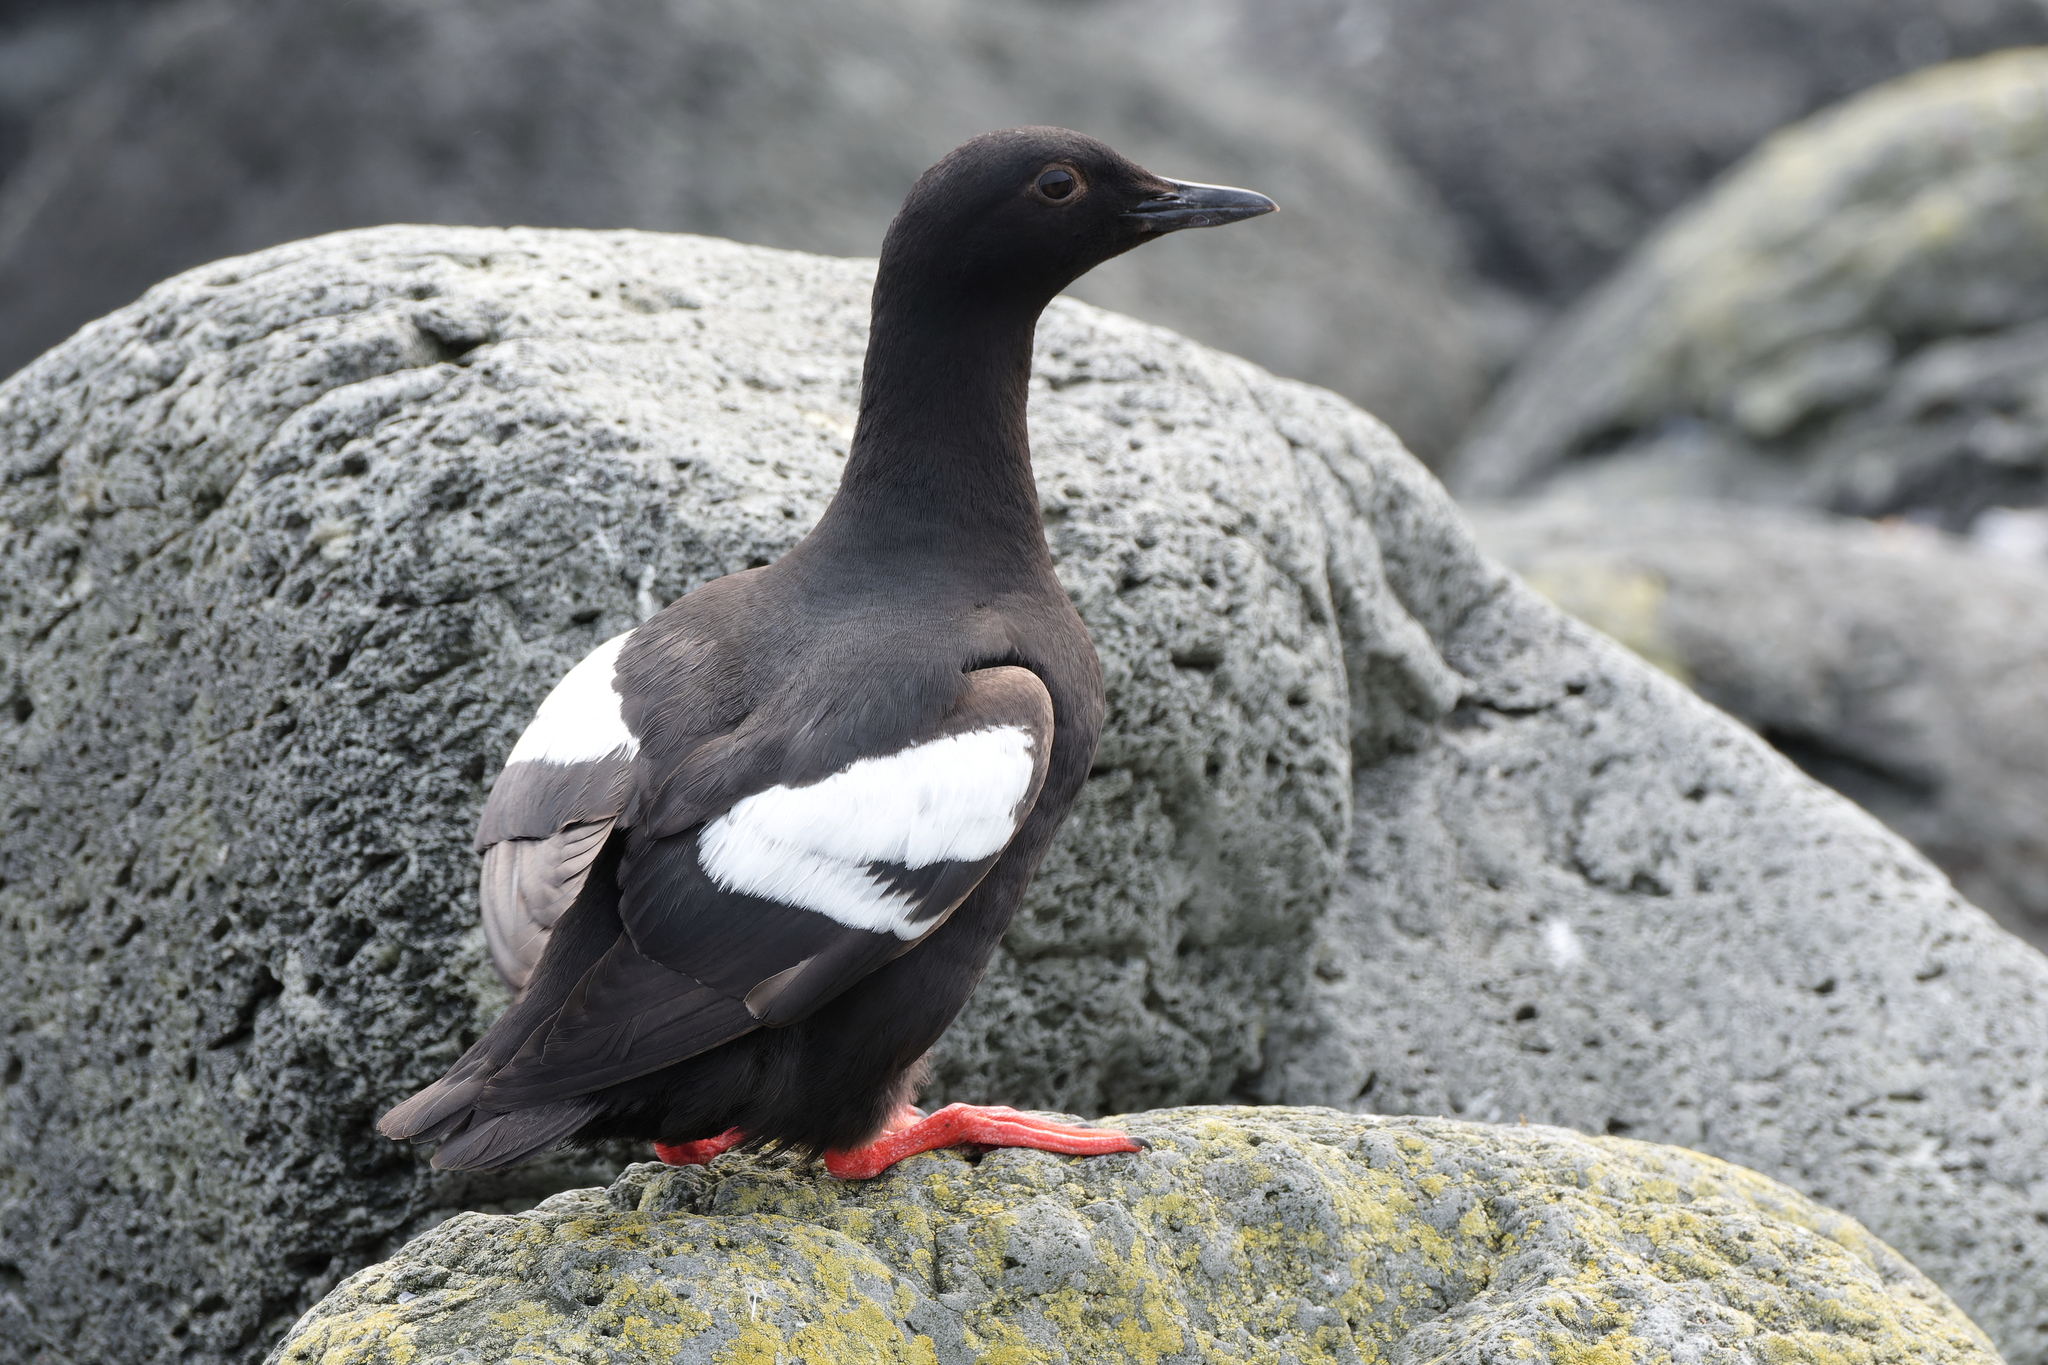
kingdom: Animalia
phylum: Chordata
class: Aves
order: Charadriiformes
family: Alcidae
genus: Cepphus
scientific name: Cepphus columba
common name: Pigeon guillemot
